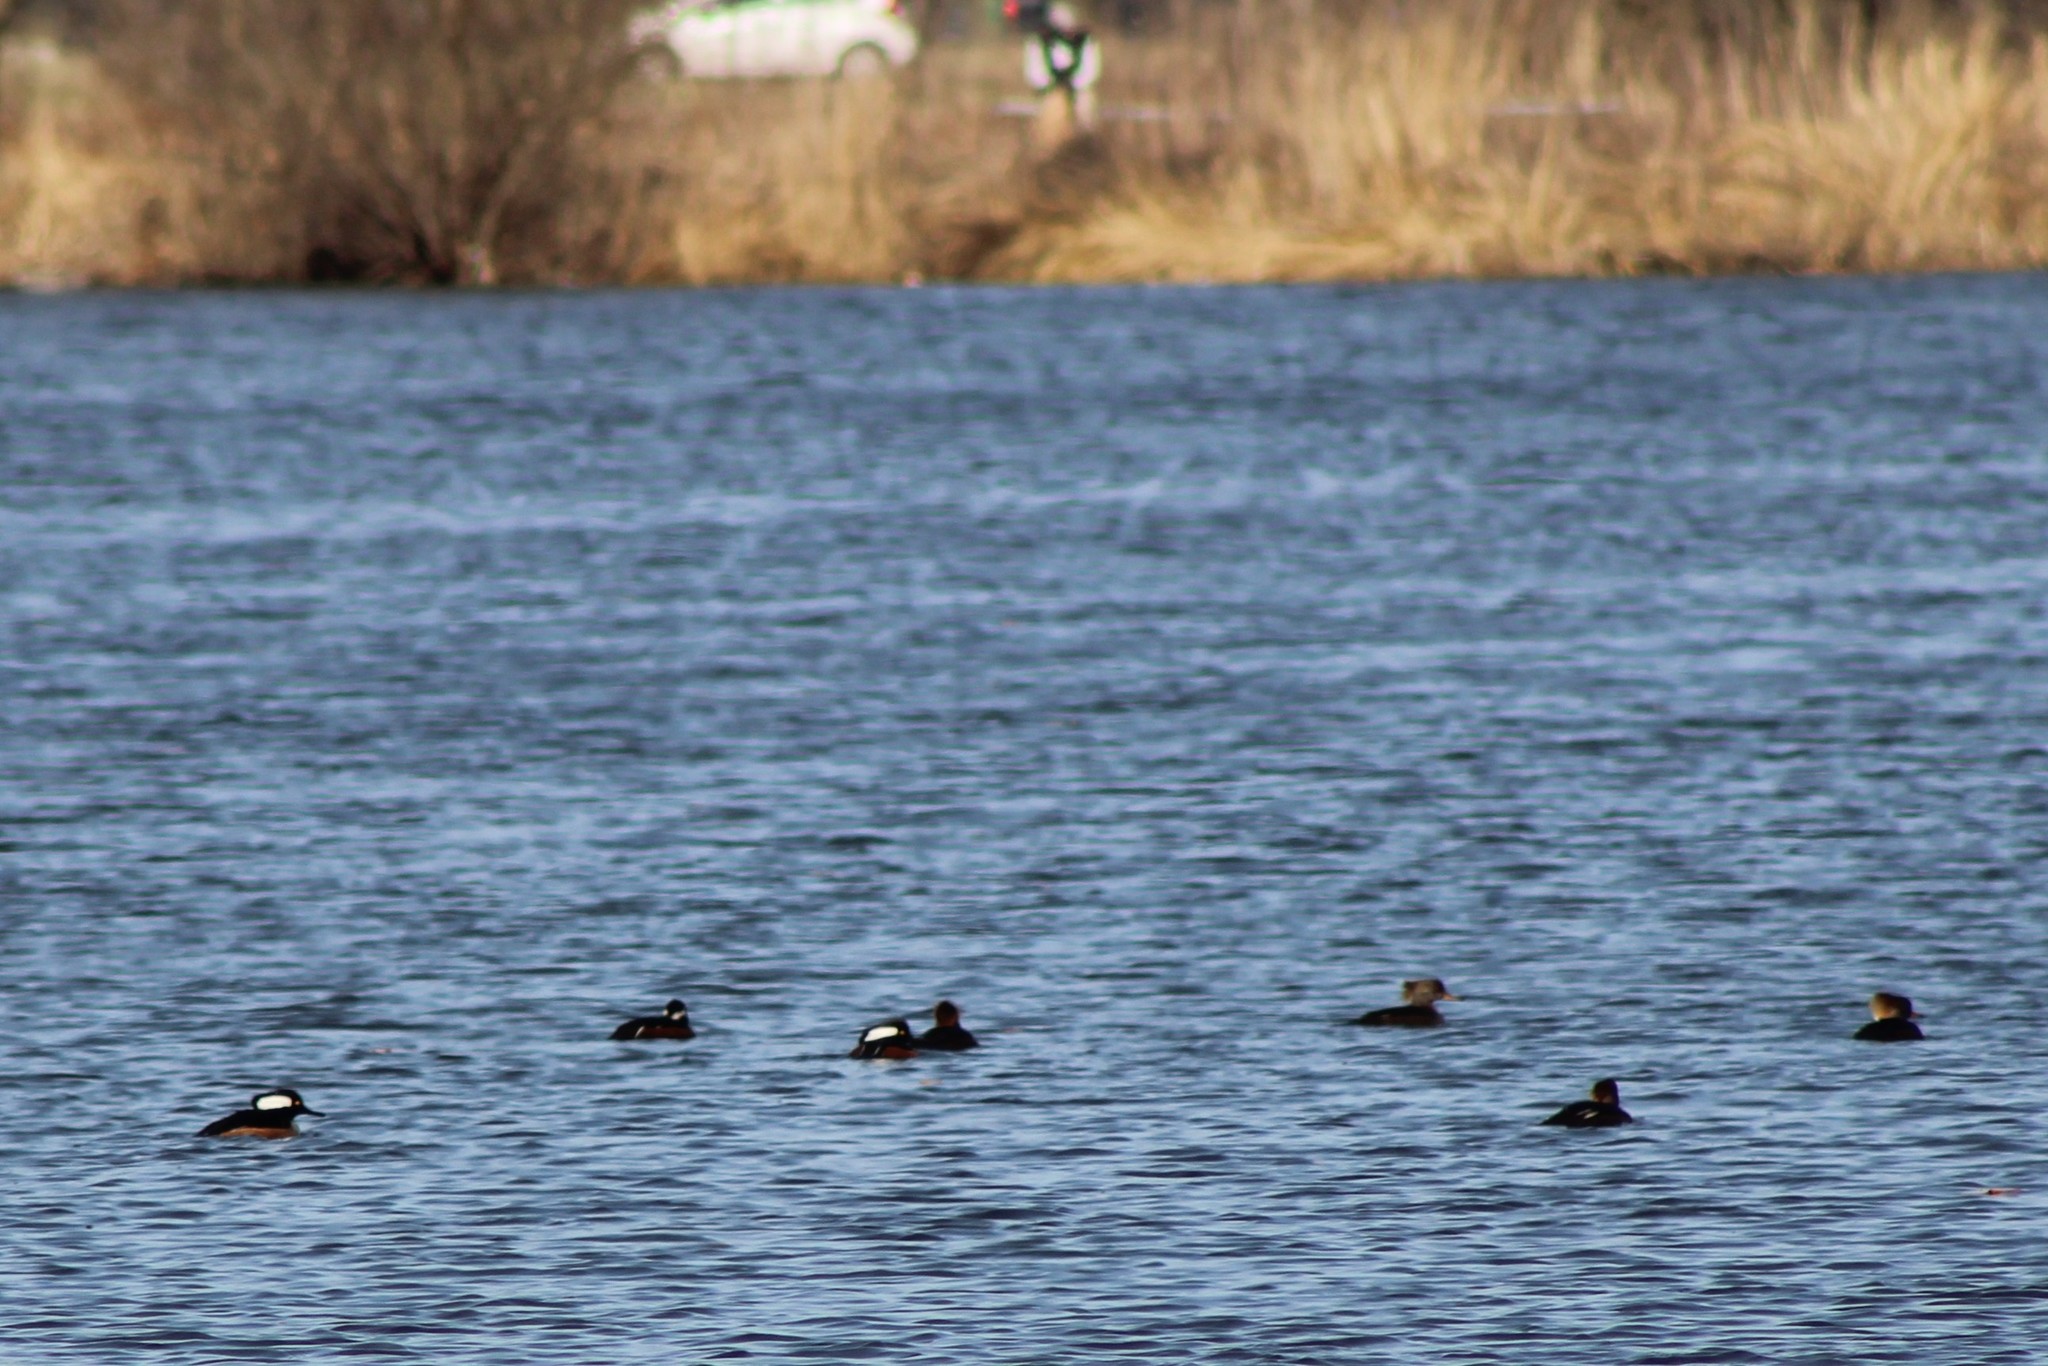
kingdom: Animalia
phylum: Chordata
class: Aves
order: Anseriformes
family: Anatidae
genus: Lophodytes
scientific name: Lophodytes cucullatus
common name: Hooded merganser
